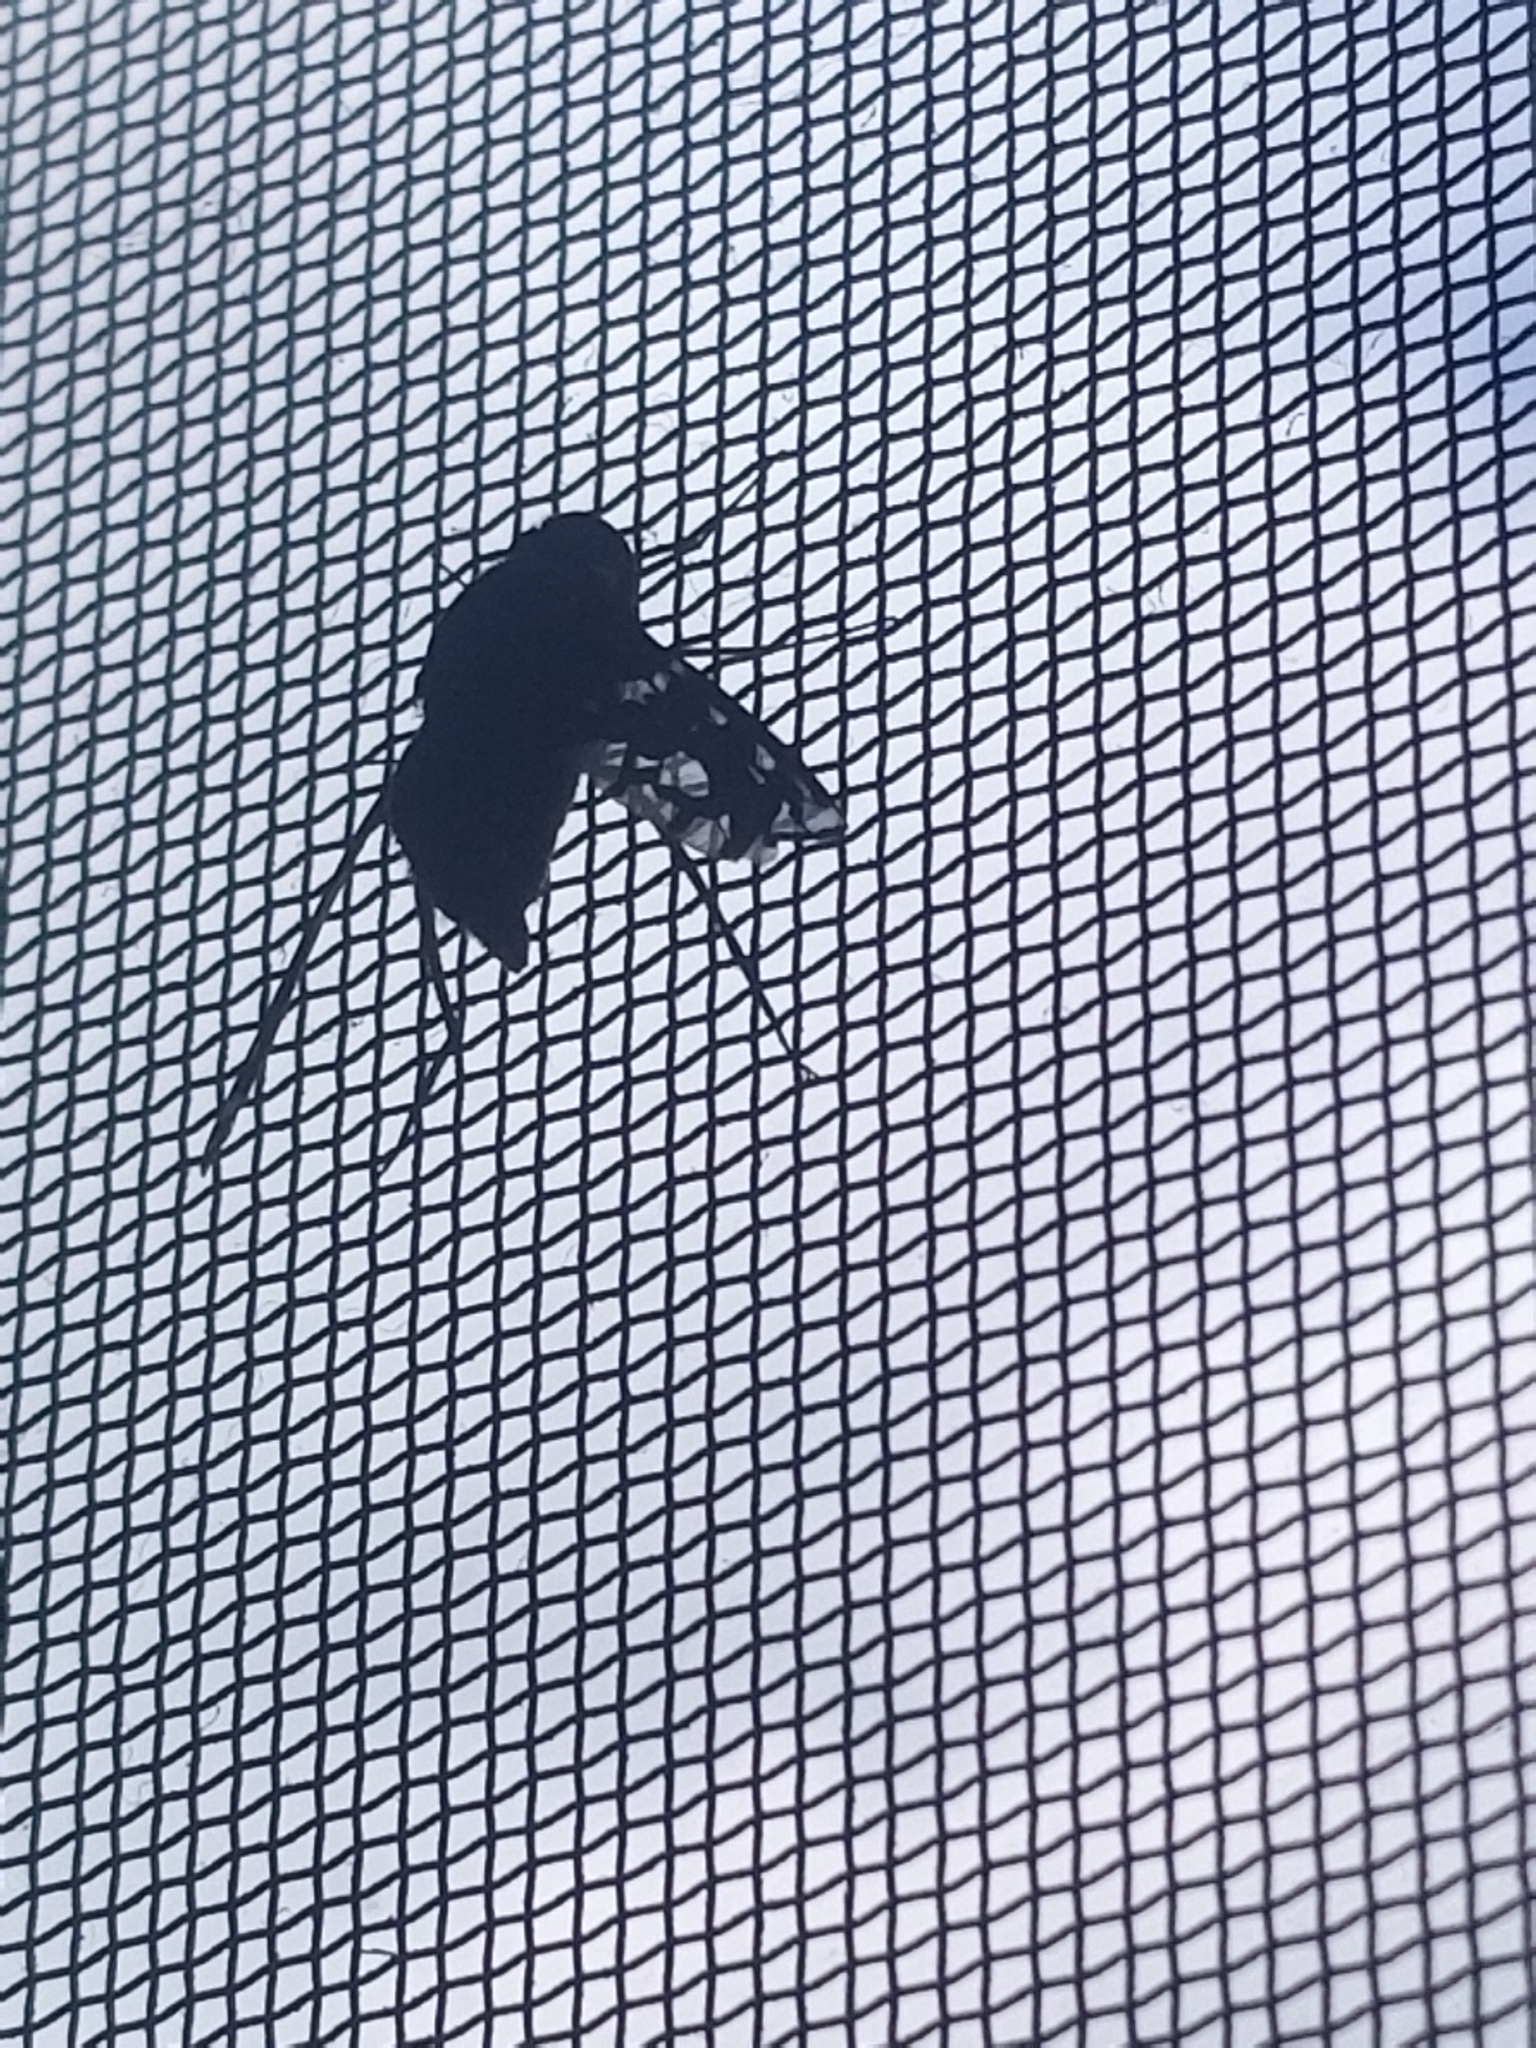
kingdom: Animalia
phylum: Arthropoda
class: Insecta
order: Diptera
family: Bombyliidae
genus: Xenox
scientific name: Xenox tigrinus
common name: Tiger bee fly
